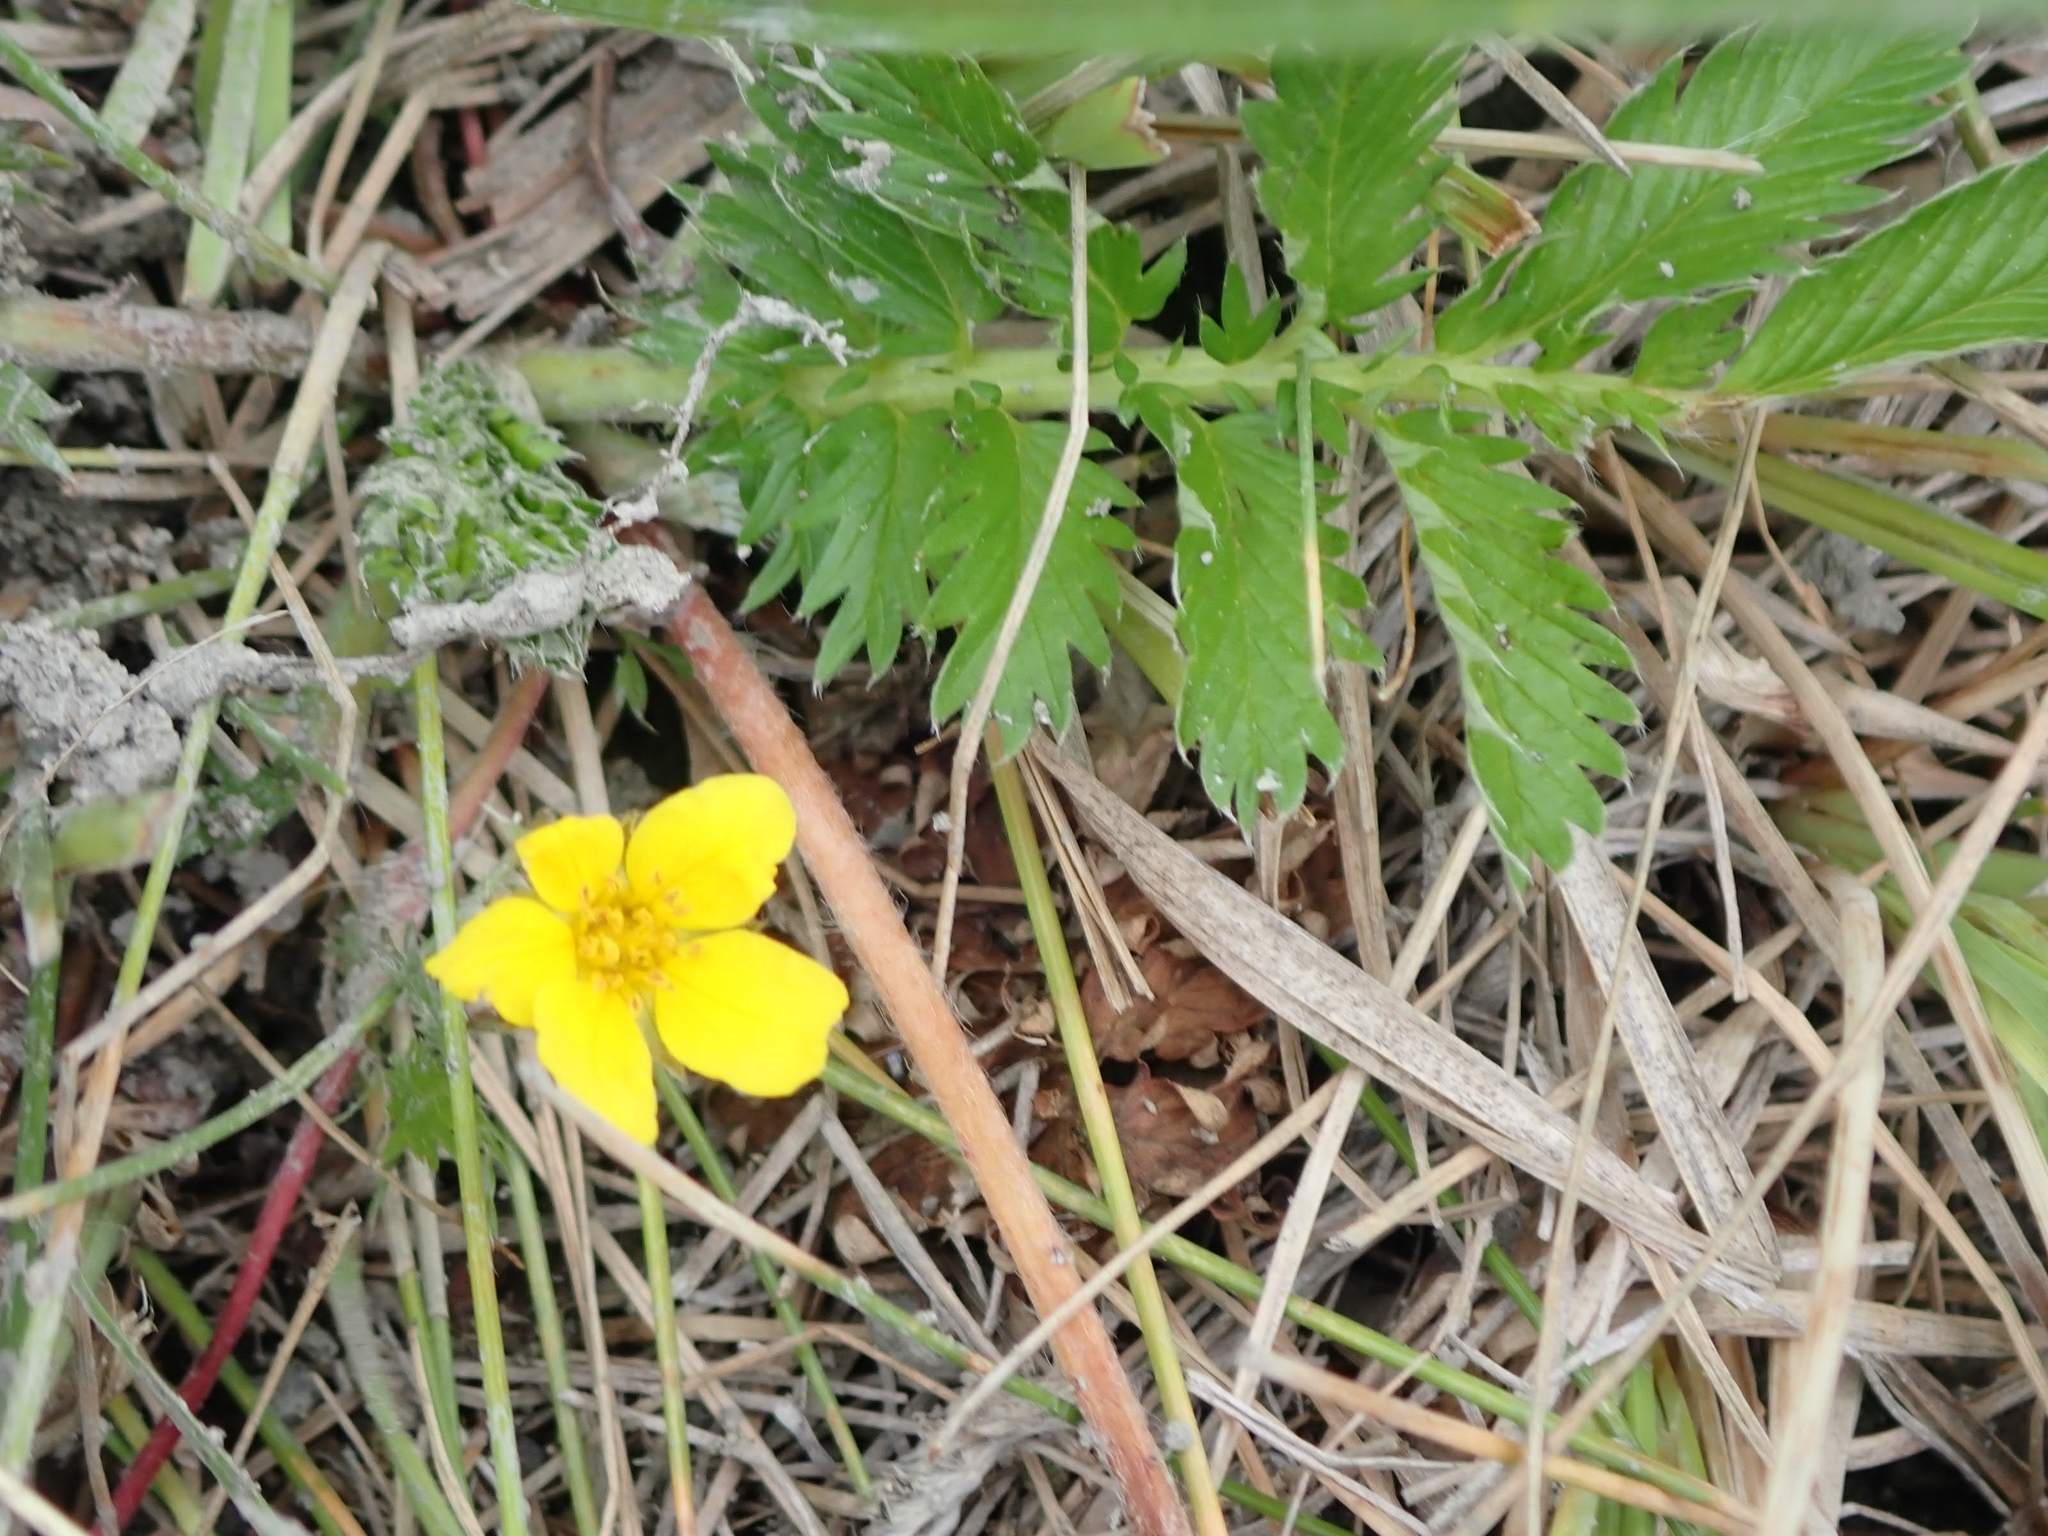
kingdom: Plantae
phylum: Tracheophyta
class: Magnoliopsida
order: Rosales
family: Rosaceae
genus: Argentina
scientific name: Argentina anserina
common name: Common silverweed
